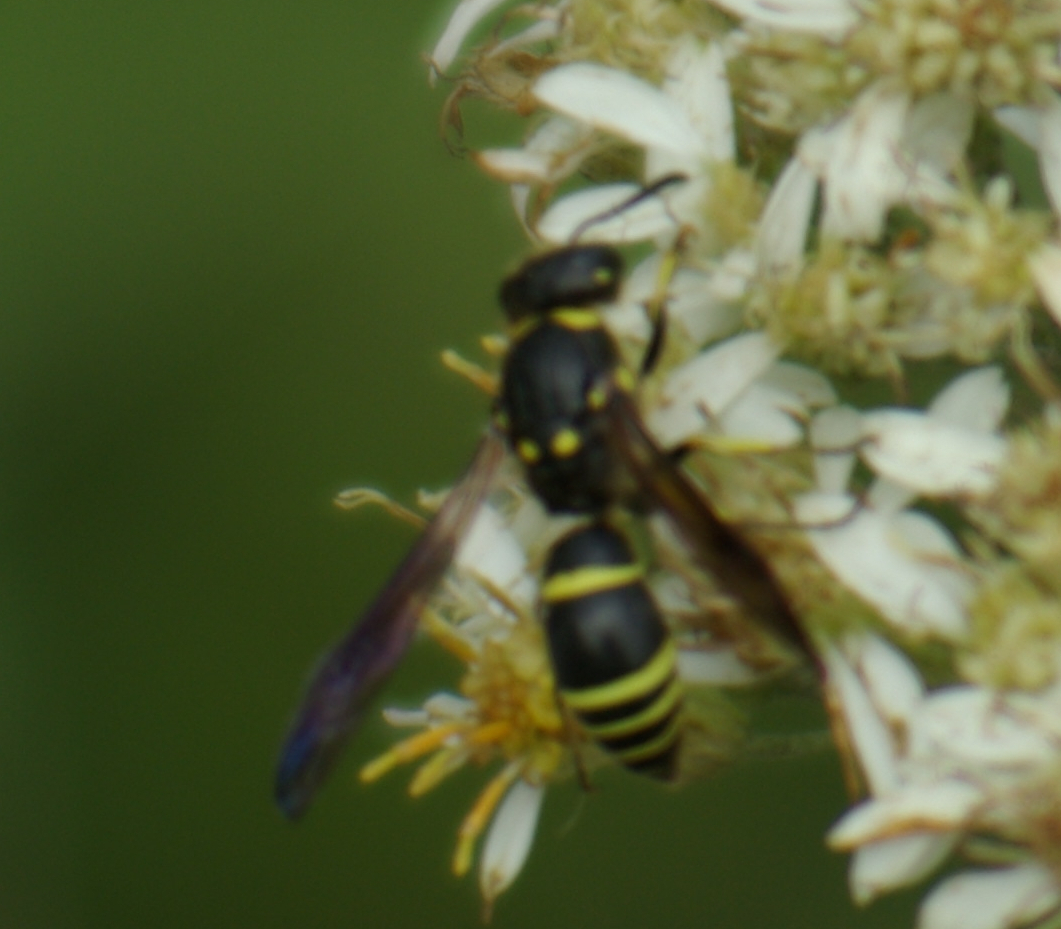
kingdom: Animalia
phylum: Arthropoda
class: Insecta
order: Hymenoptera
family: Vespidae
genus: Ancistrocerus
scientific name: Ancistrocerus
